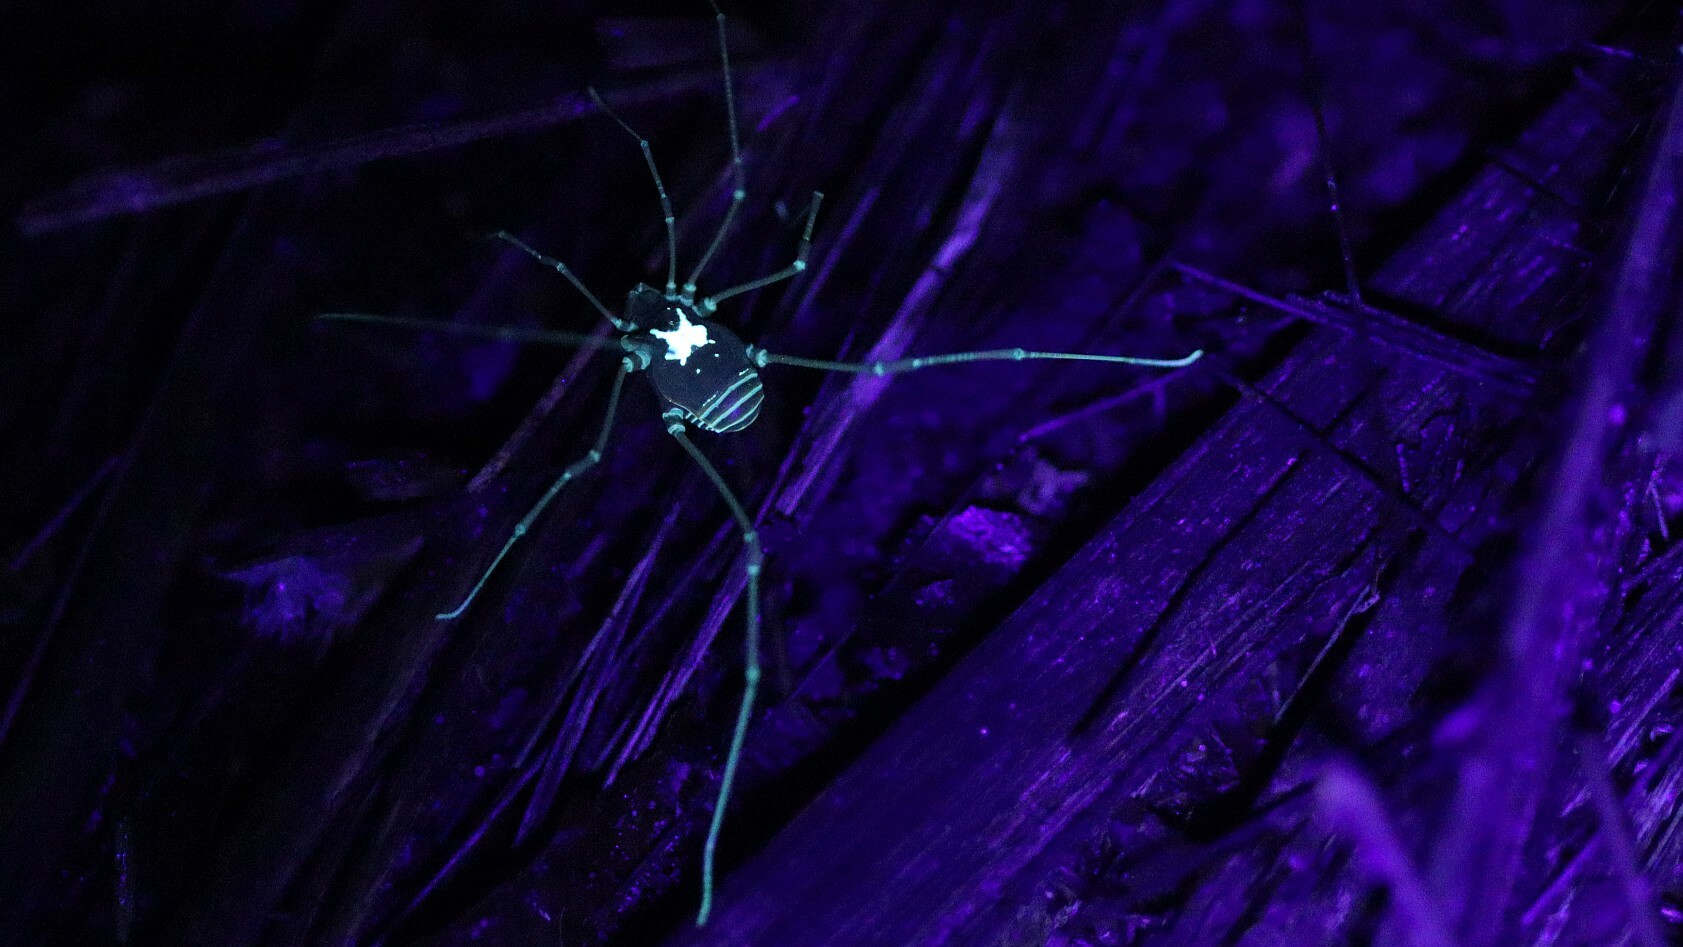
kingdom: Animalia
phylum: Arthropoda
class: Arachnida
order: Opiliones
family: Cosmetidae
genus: Vononana
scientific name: Vononana adrik
